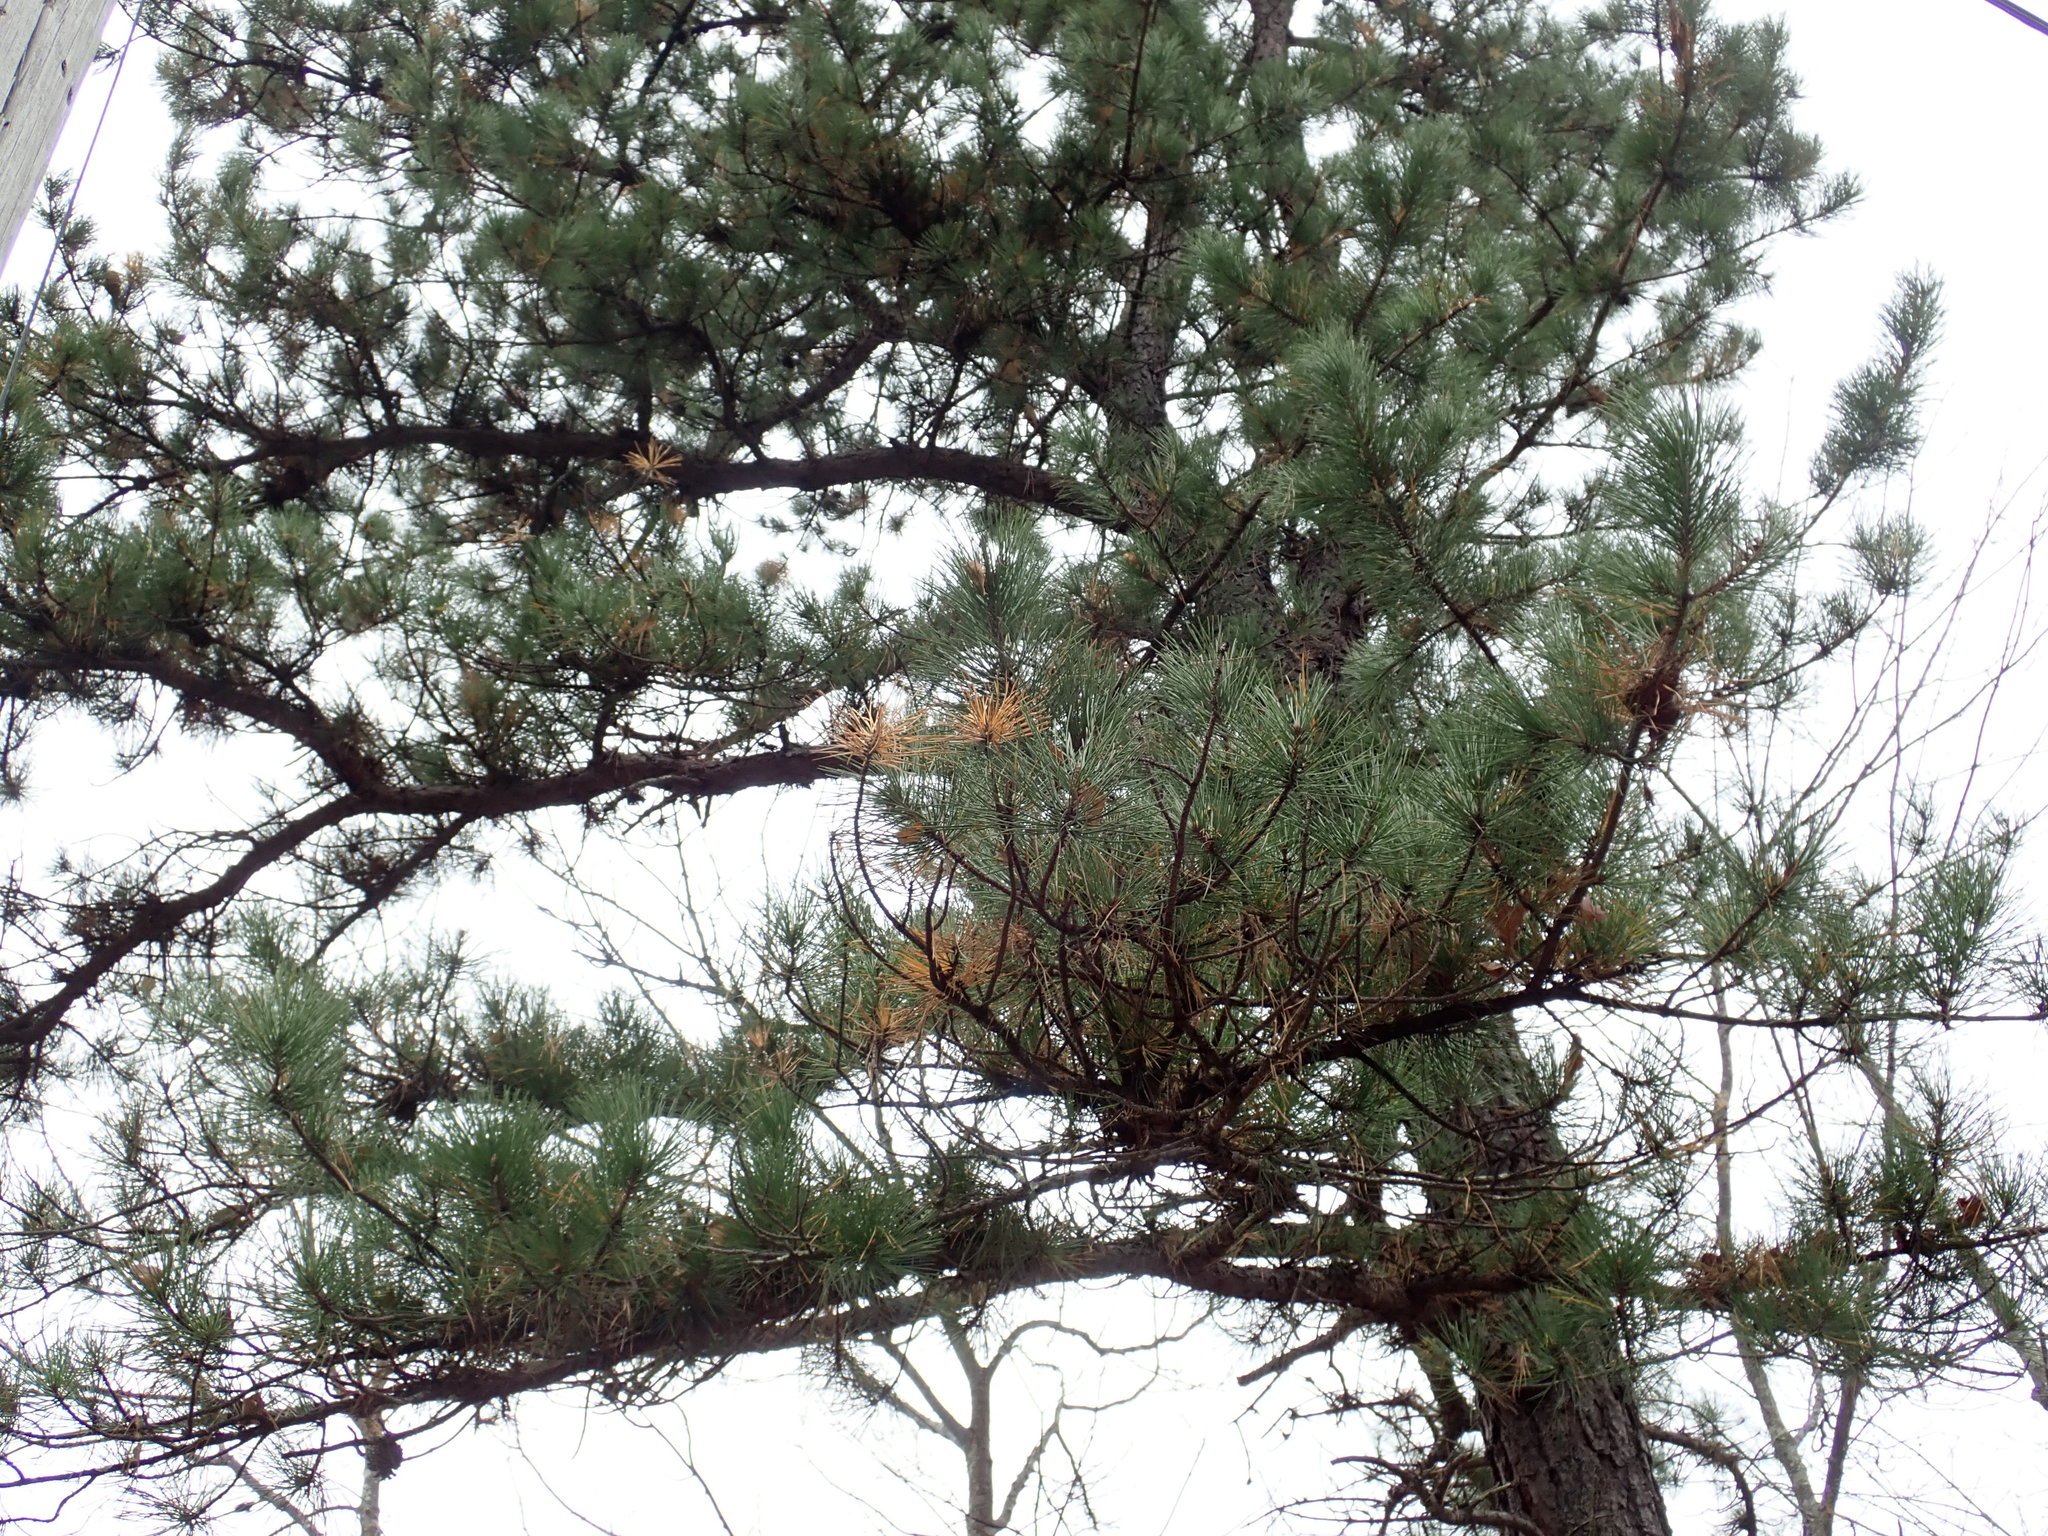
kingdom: Plantae
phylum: Tracheophyta
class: Pinopsida
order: Pinales
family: Pinaceae
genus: Pinus
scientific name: Pinus rigida
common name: Pitch pine
